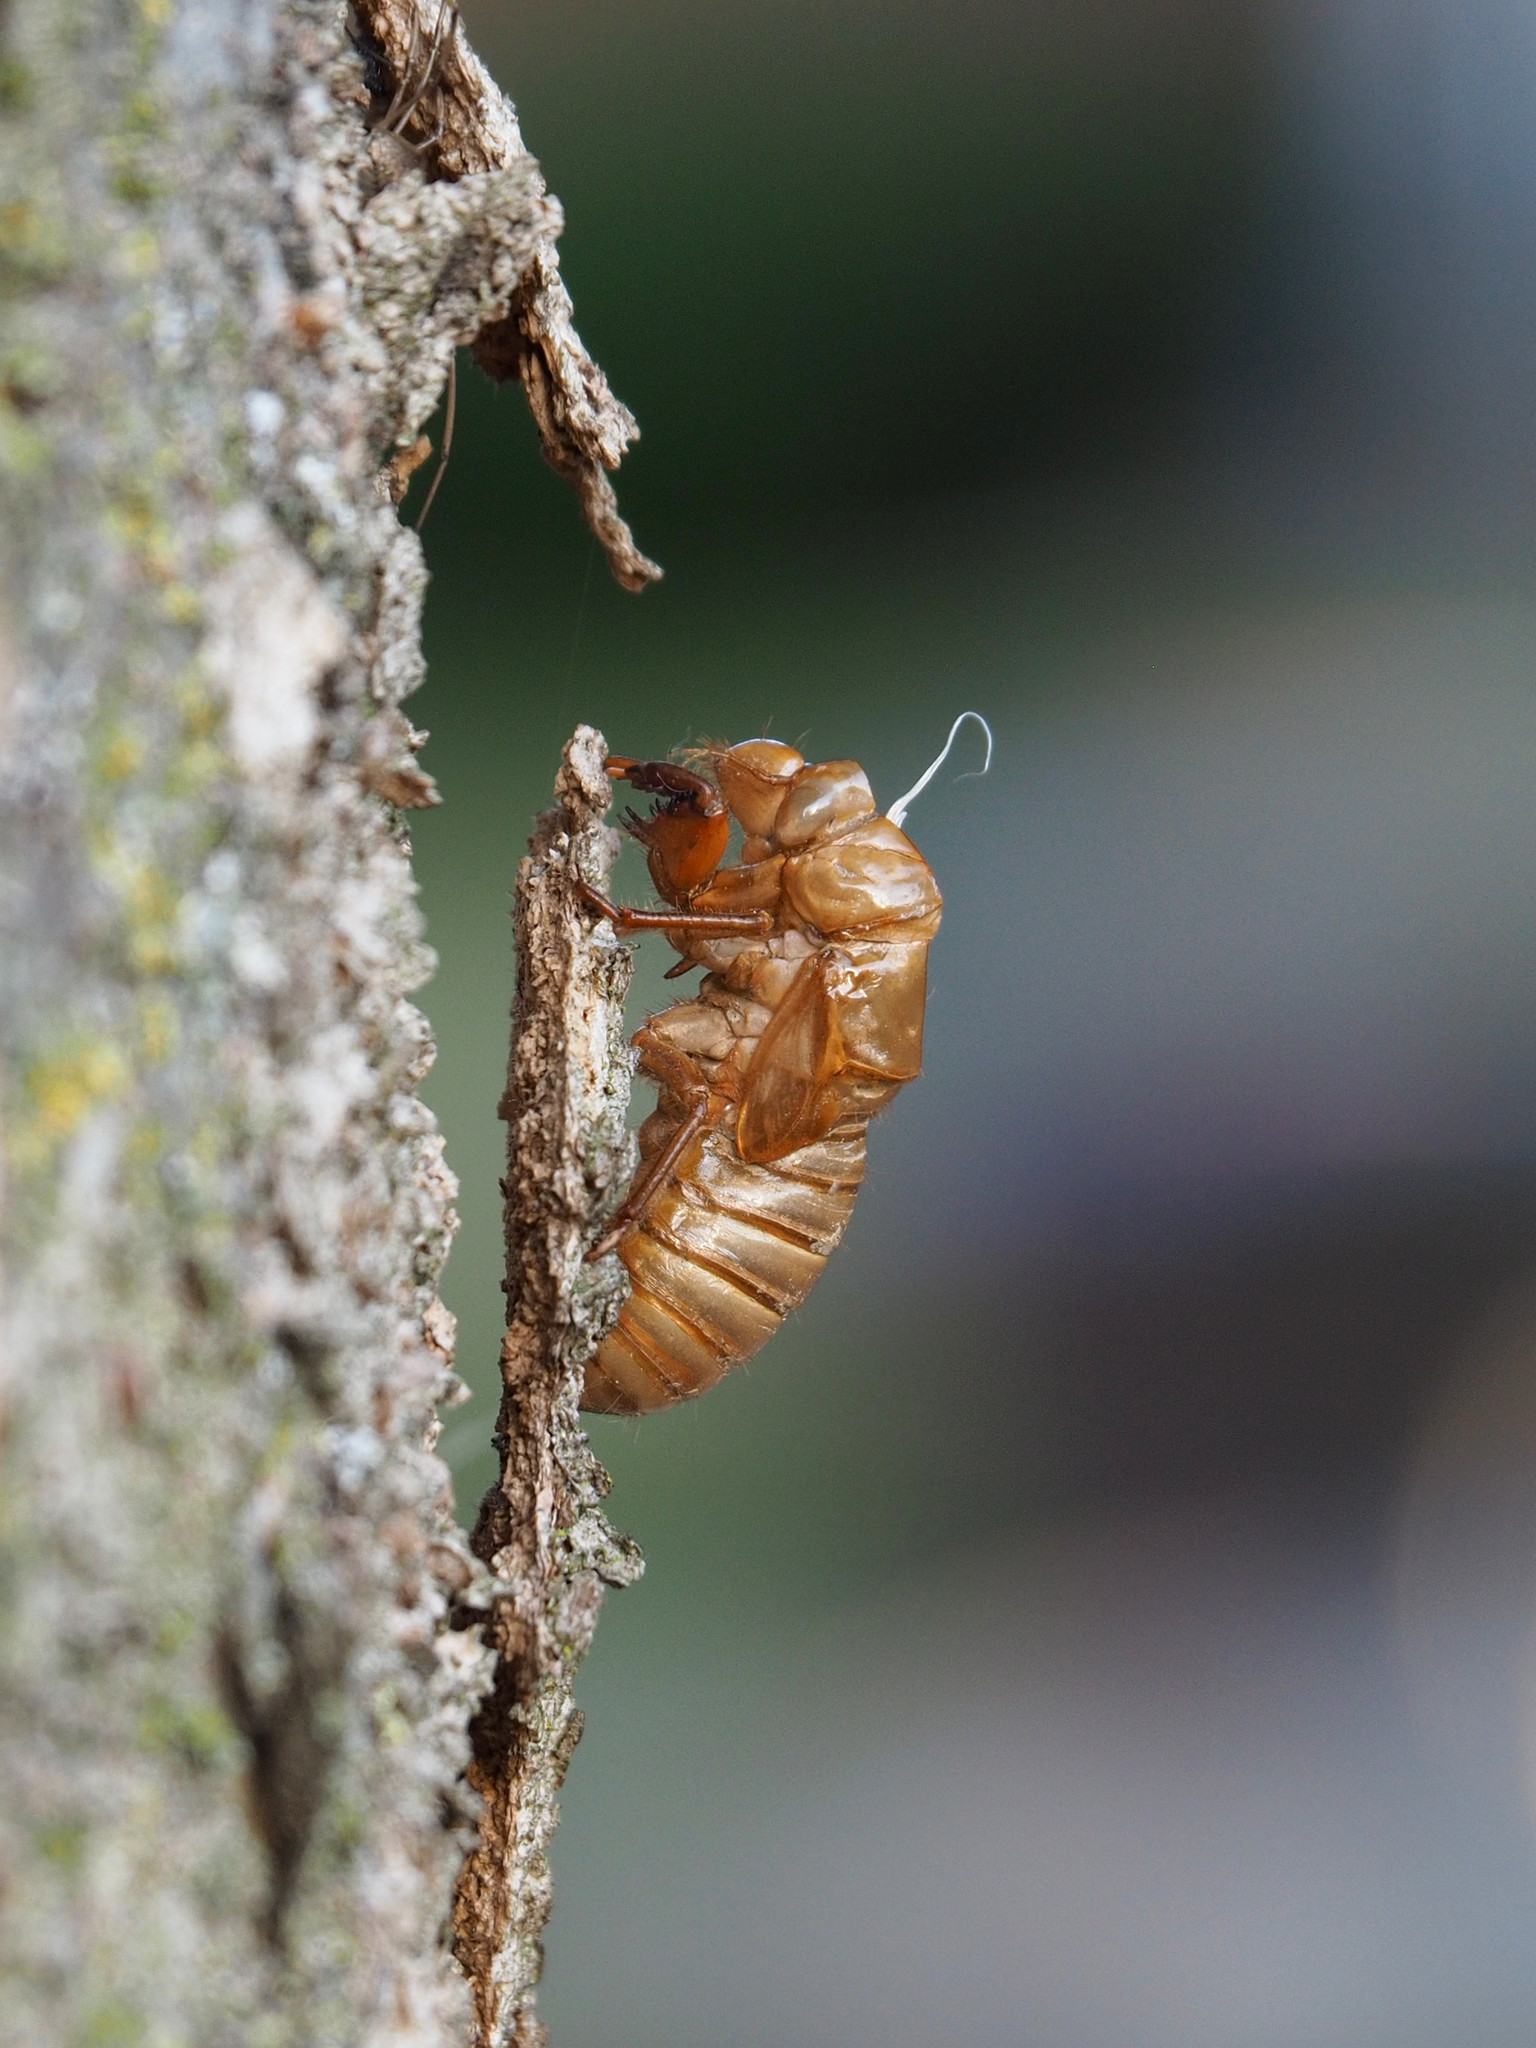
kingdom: Animalia
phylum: Arthropoda
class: Insecta
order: Hemiptera
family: Cicadidae
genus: Magicicada
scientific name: Magicicada
